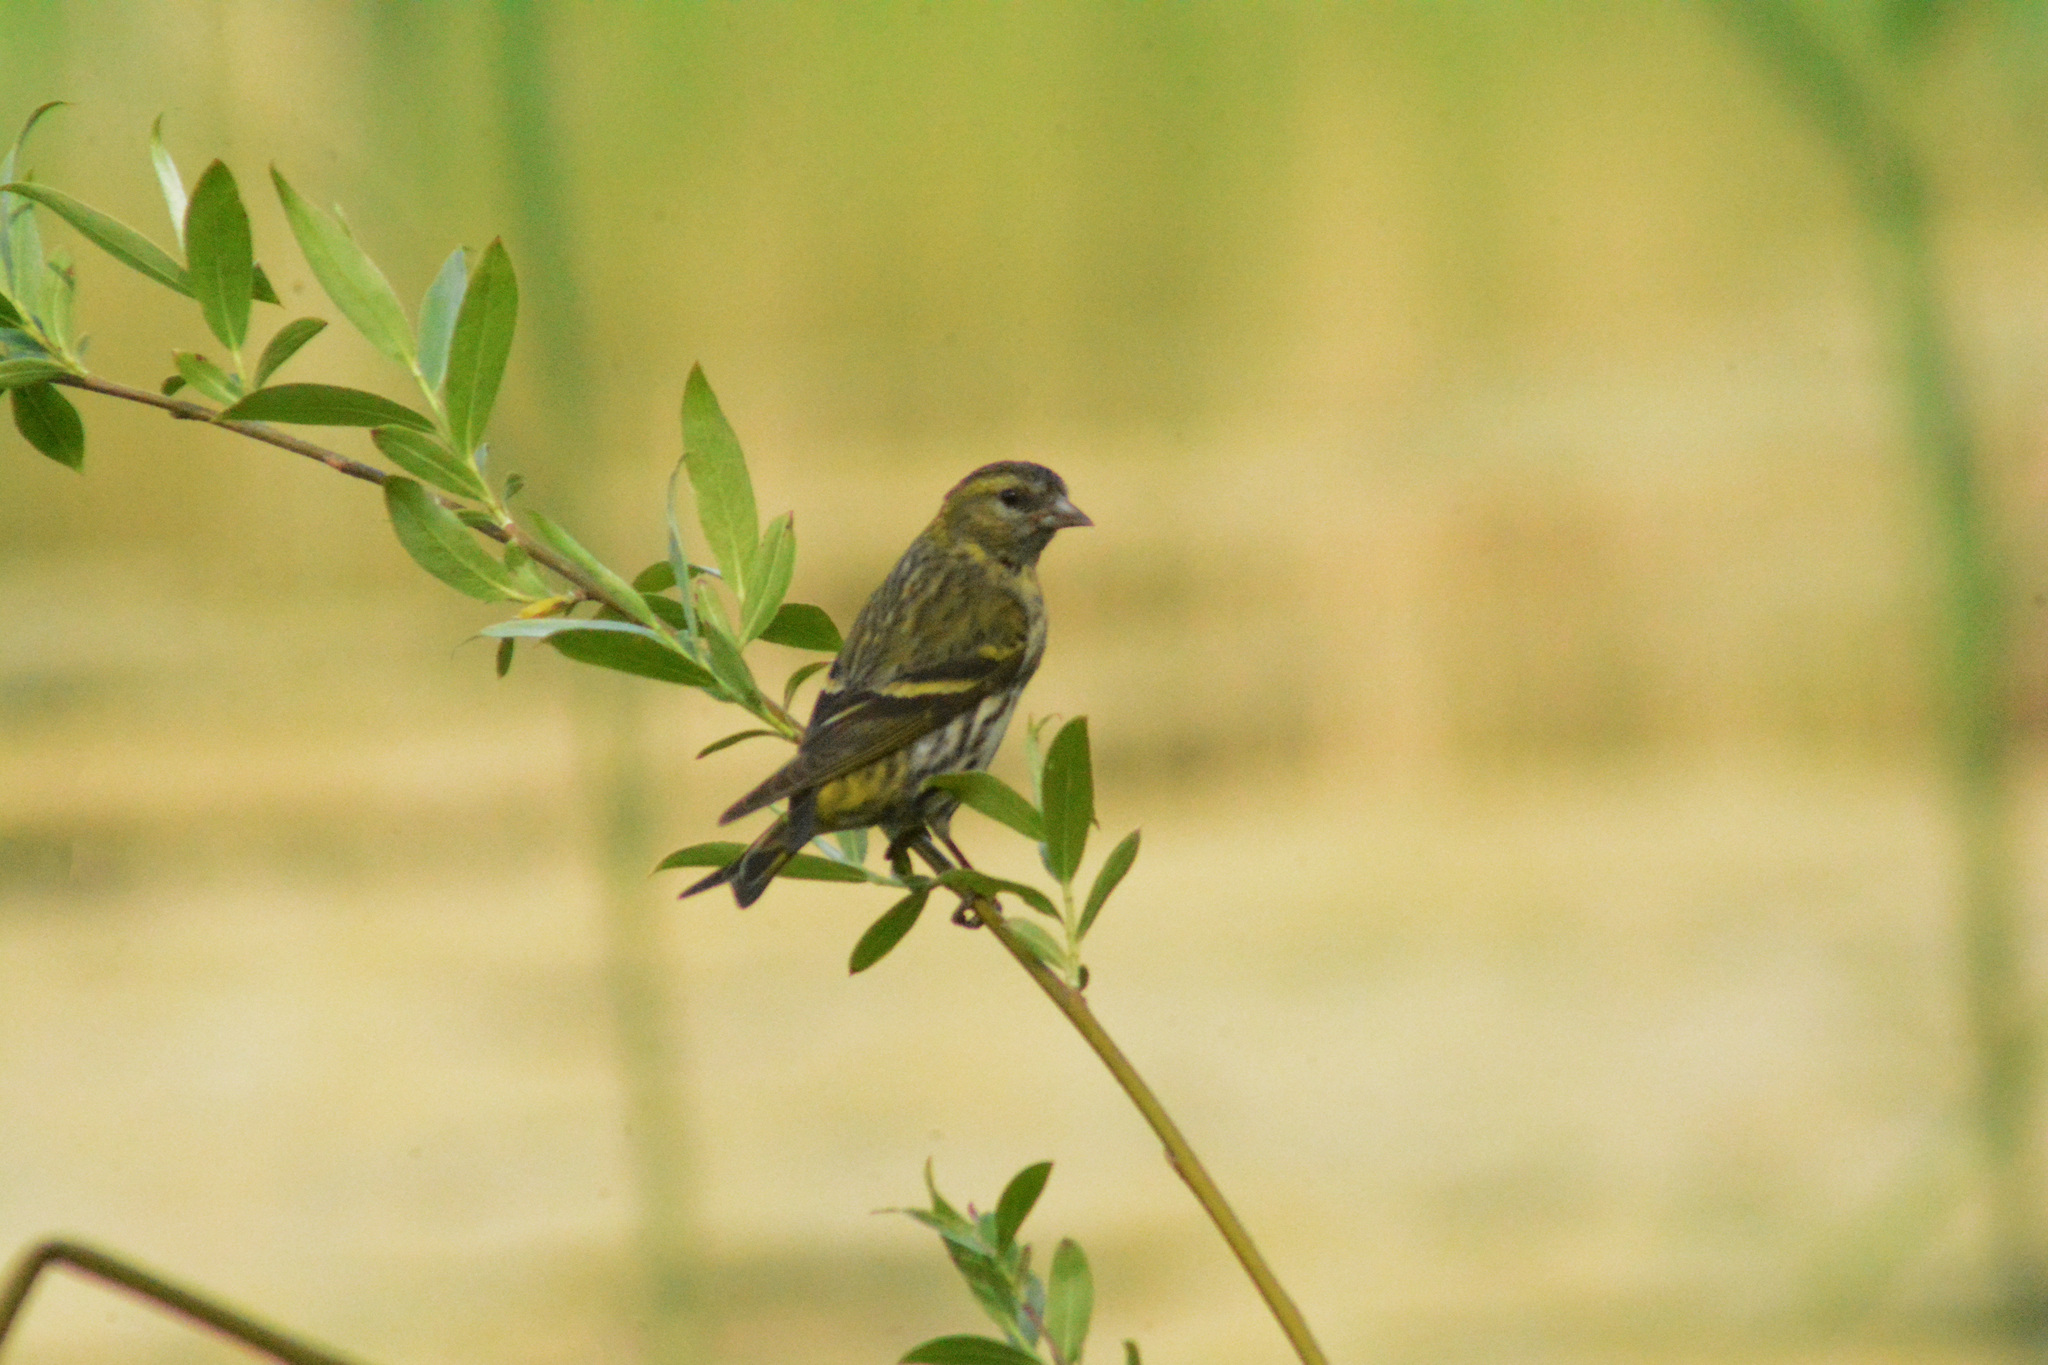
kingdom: Animalia
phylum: Chordata
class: Aves
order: Passeriformes
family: Fringillidae
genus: Spinus
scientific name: Spinus spinus
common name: Eurasian siskin
